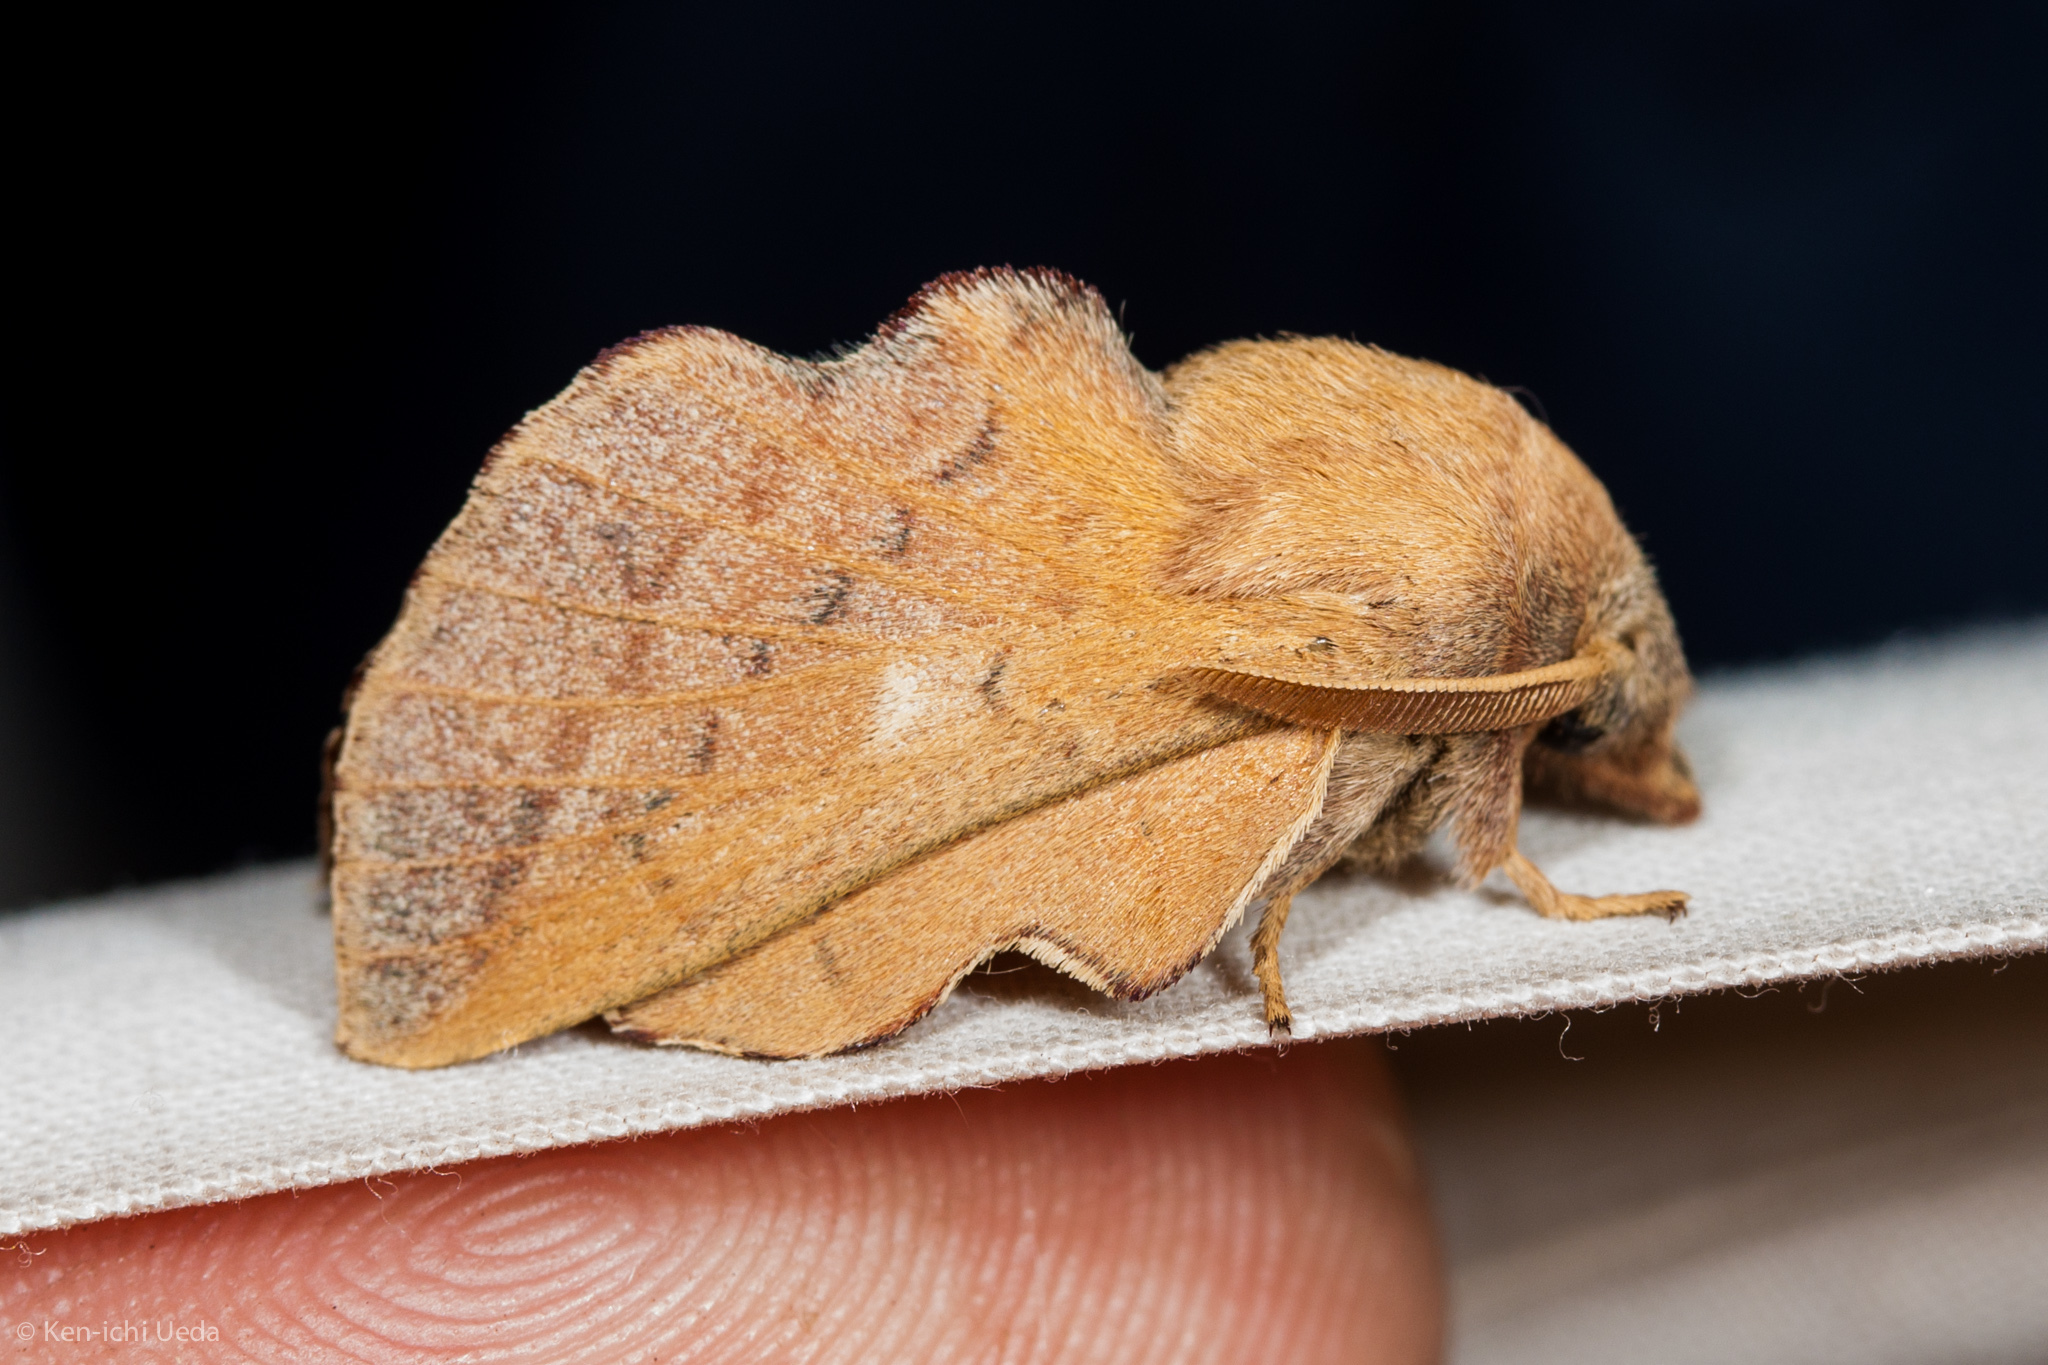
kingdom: Animalia
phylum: Arthropoda
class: Insecta
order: Lepidoptera
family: Lasiocampidae
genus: Phyllodesma
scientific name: Phyllodesma americana
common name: American lappet moth
